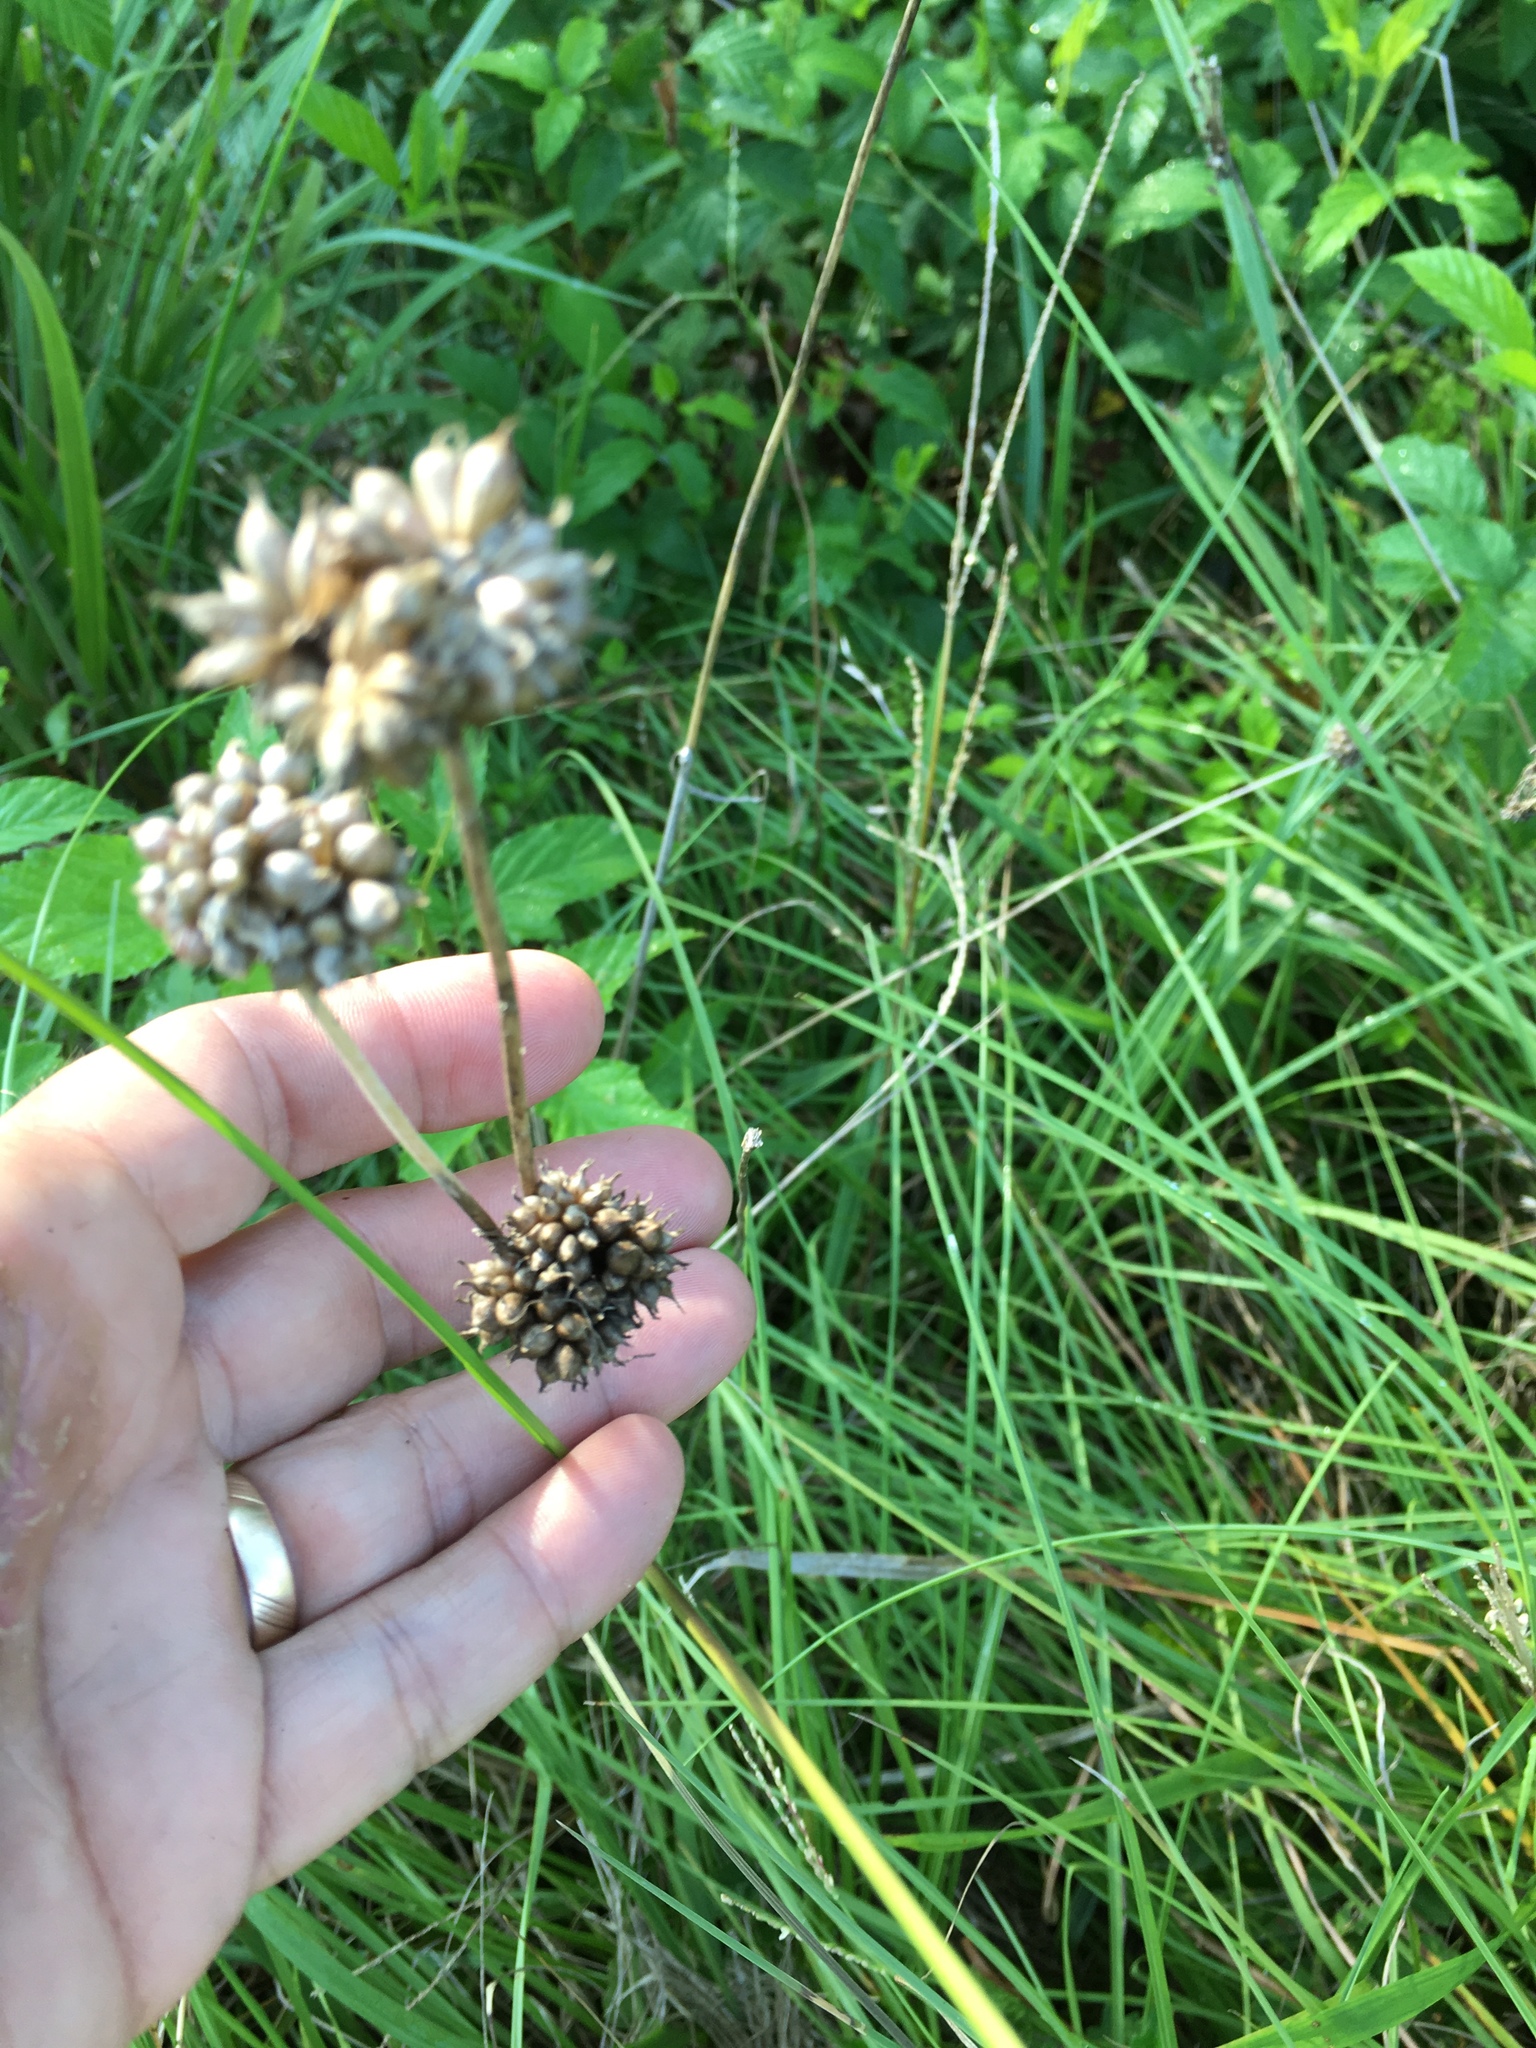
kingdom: Plantae
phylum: Tracheophyta
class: Liliopsida
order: Asparagales
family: Amaryllidaceae
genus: Allium
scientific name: Allium vineale
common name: Crow garlic
